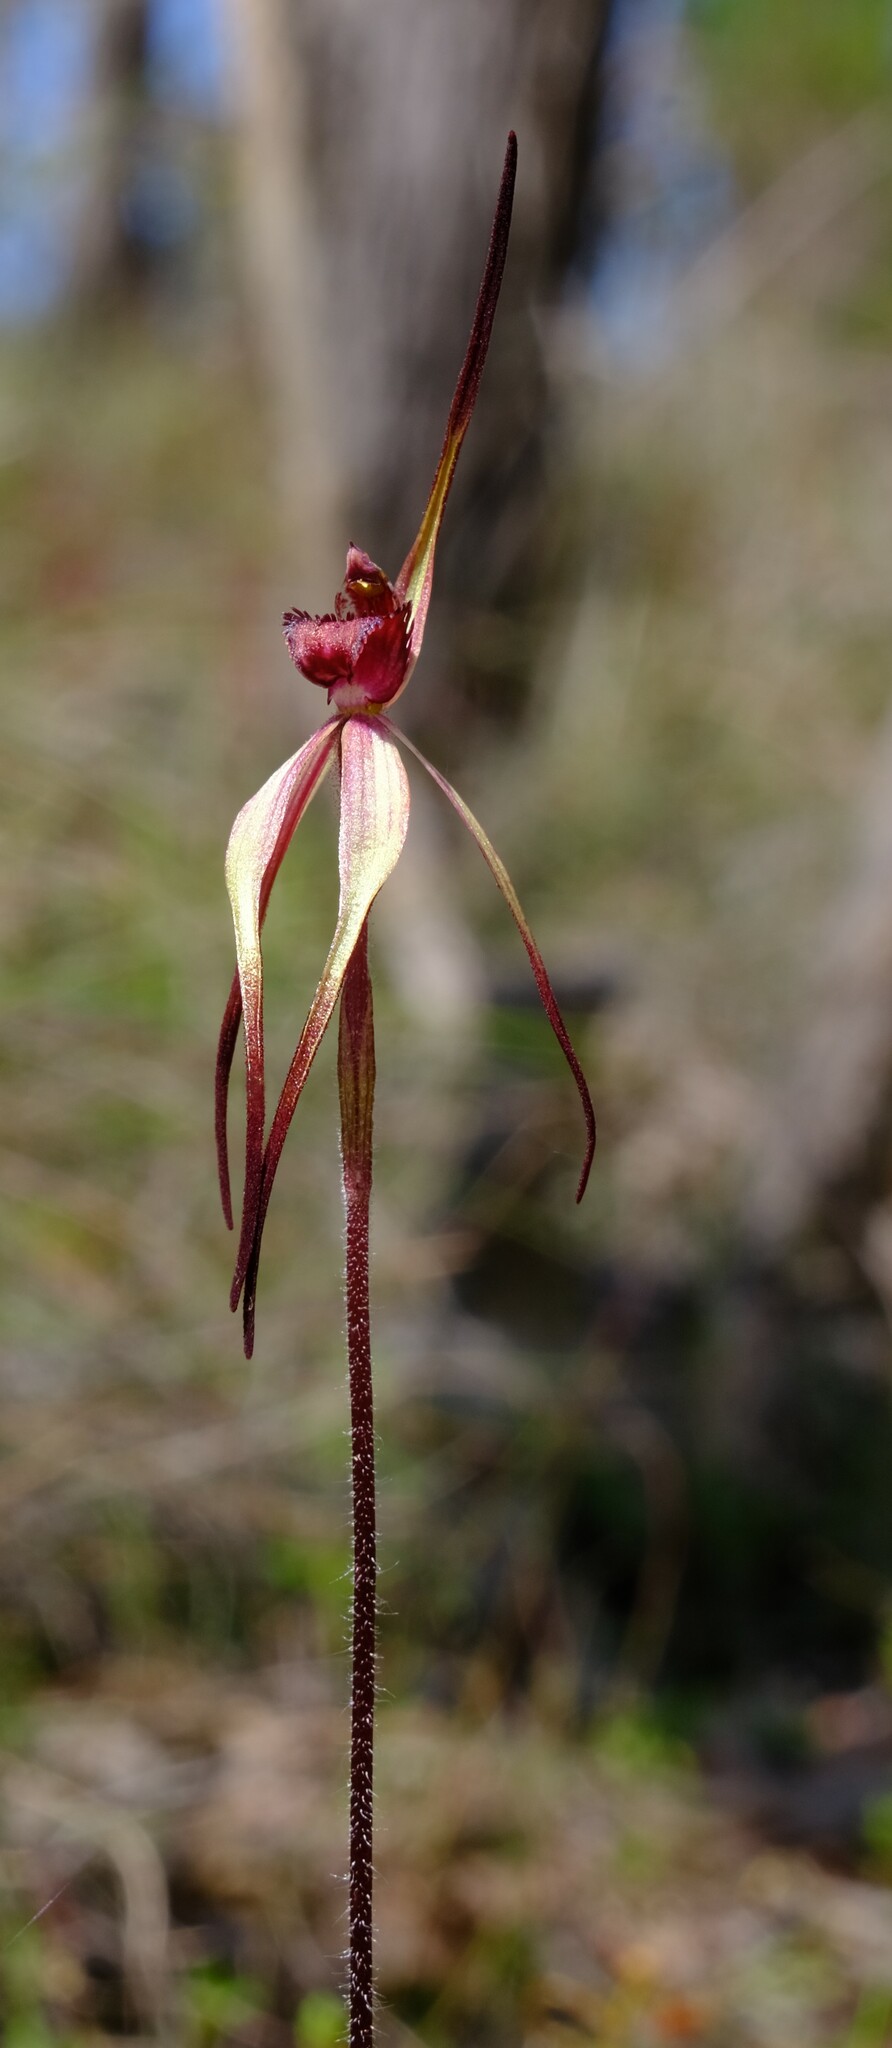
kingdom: Plantae
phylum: Tracheophyta
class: Liliopsida
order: Asparagales
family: Orchidaceae
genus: Caladenia
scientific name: Caladenia clavescens
